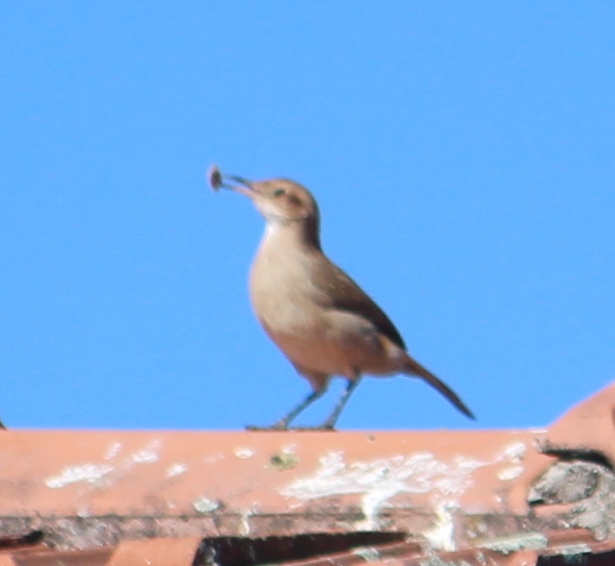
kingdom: Animalia
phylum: Chordata
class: Aves
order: Passeriformes
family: Furnariidae
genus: Furnarius
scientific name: Furnarius rufus
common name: Rufous hornero
